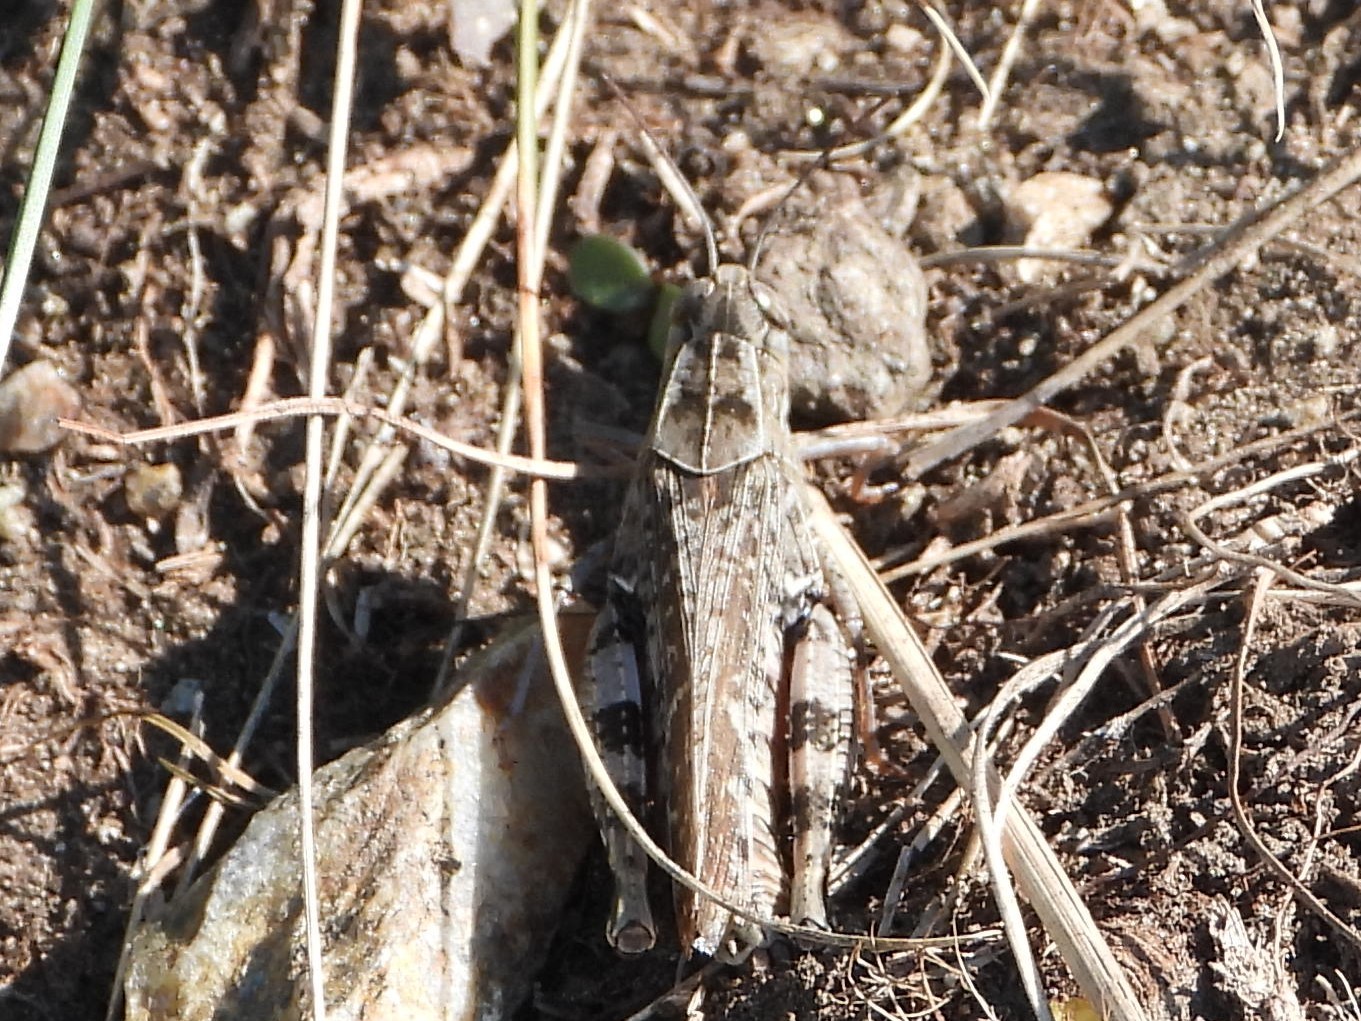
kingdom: Animalia
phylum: Arthropoda
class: Insecta
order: Orthoptera
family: Acrididae
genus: Calliptamus
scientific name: Calliptamus italicus
